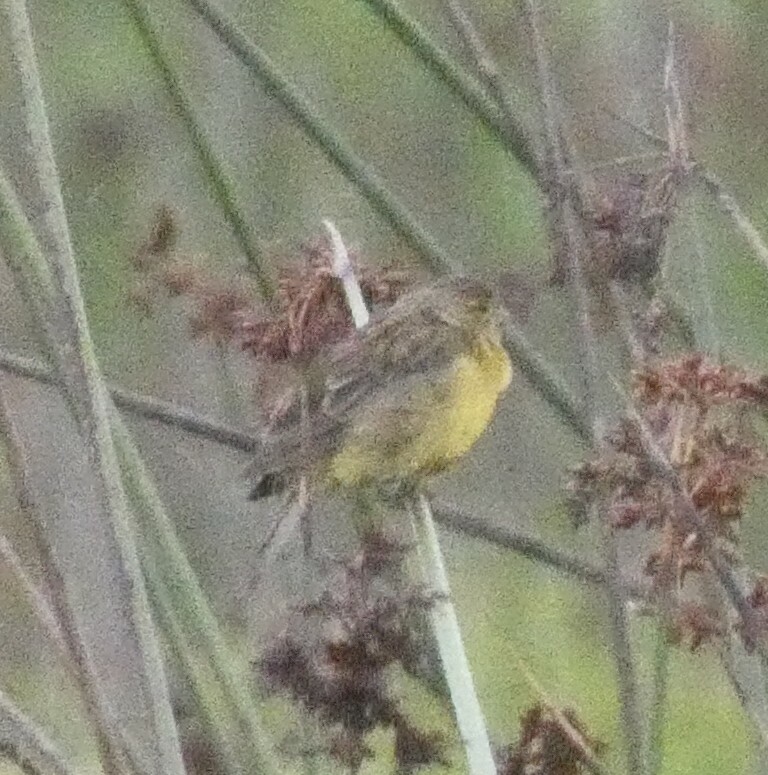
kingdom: Animalia
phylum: Chordata
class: Aves
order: Passeriformes
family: Thraupidae
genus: Sicalis
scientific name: Sicalis luteola
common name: Grassland yellow-finch
